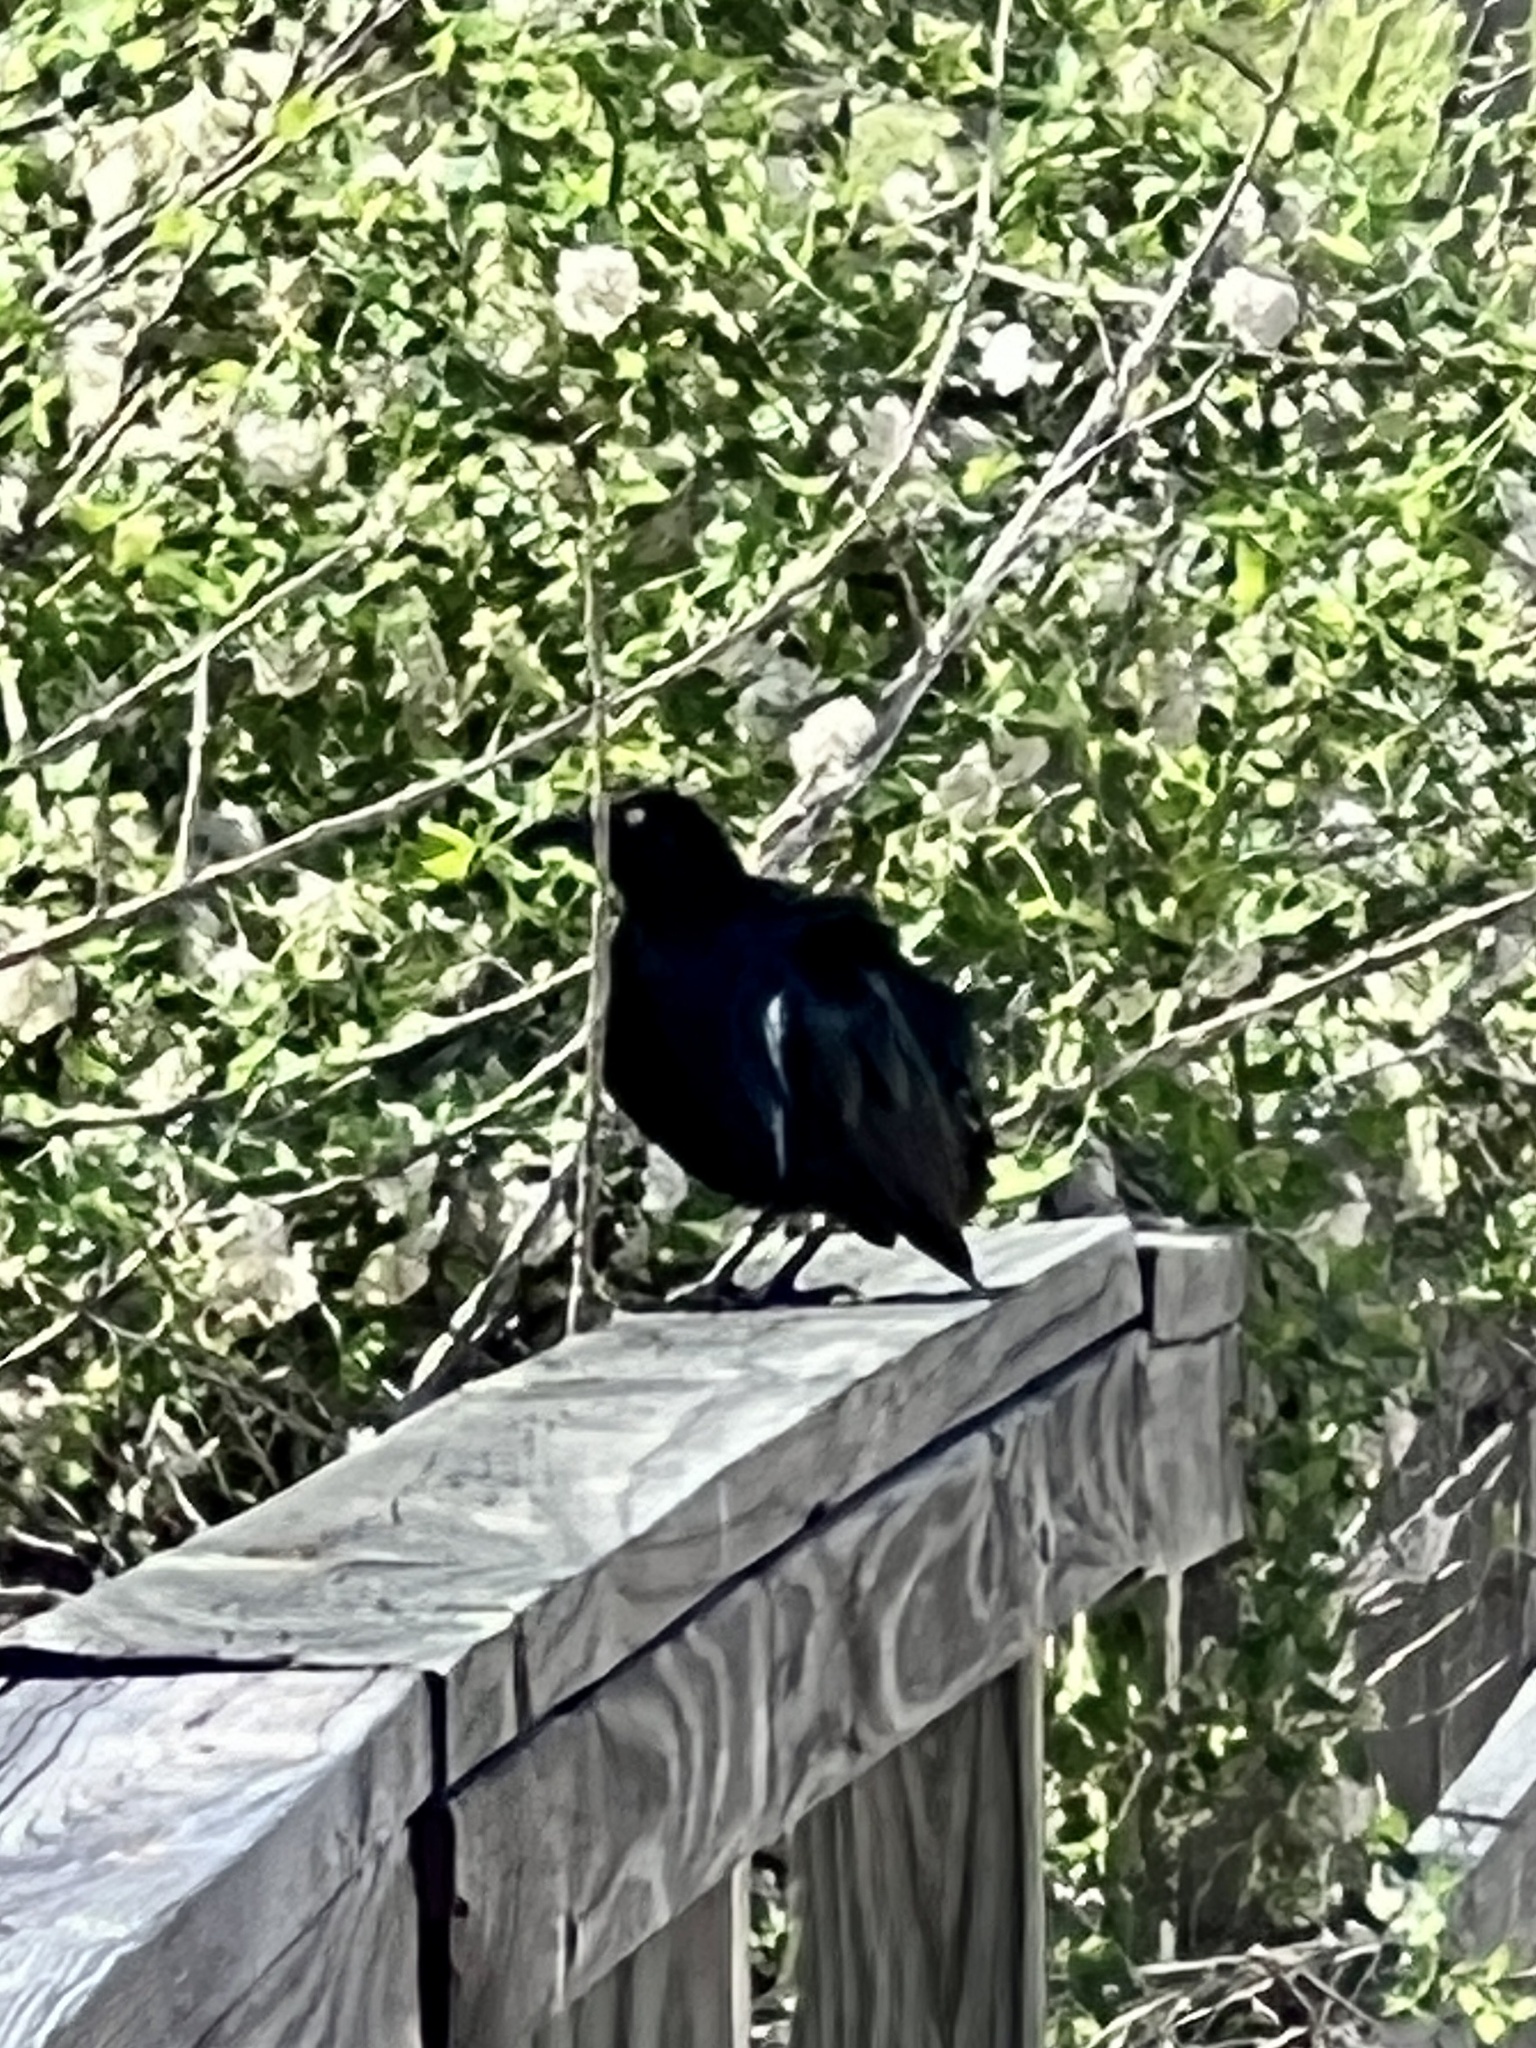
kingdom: Animalia
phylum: Chordata
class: Aves
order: Passeriformes
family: Icteridae
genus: Quiscalus
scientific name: Quiscalus mexicanus
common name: Great-tailed grackle
